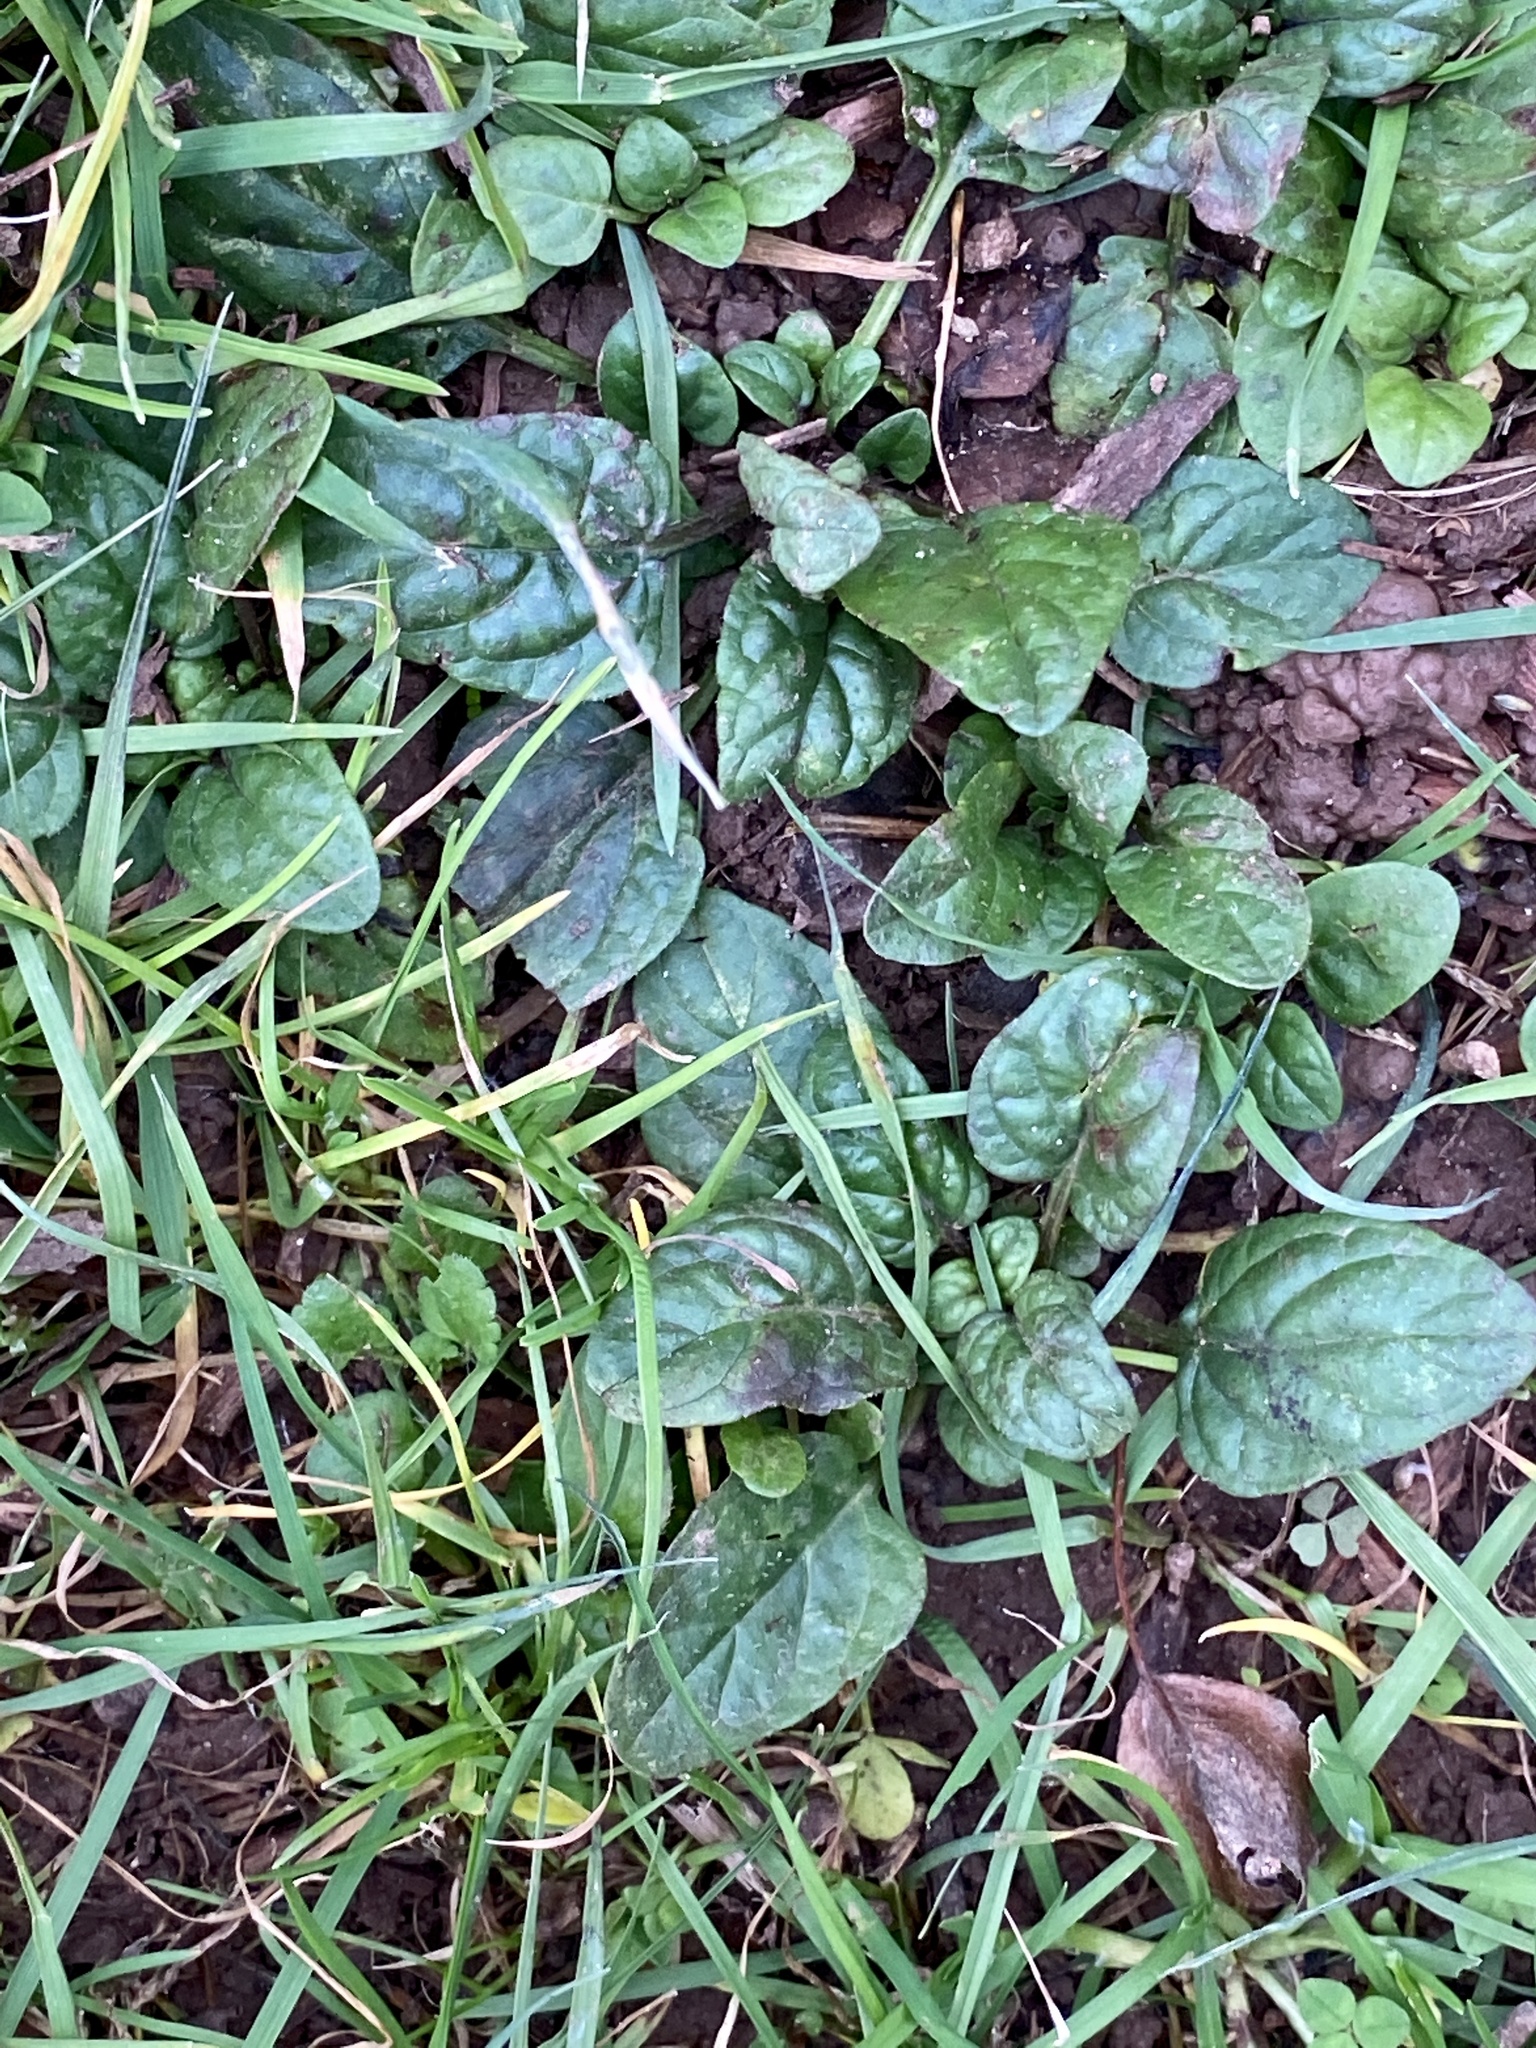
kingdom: Plantae
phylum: Tracheophyta
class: Magnoliopsida
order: Lamiales
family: Lamiaceae
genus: Prunella
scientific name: Prunella vulgaris
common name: Heal-all
